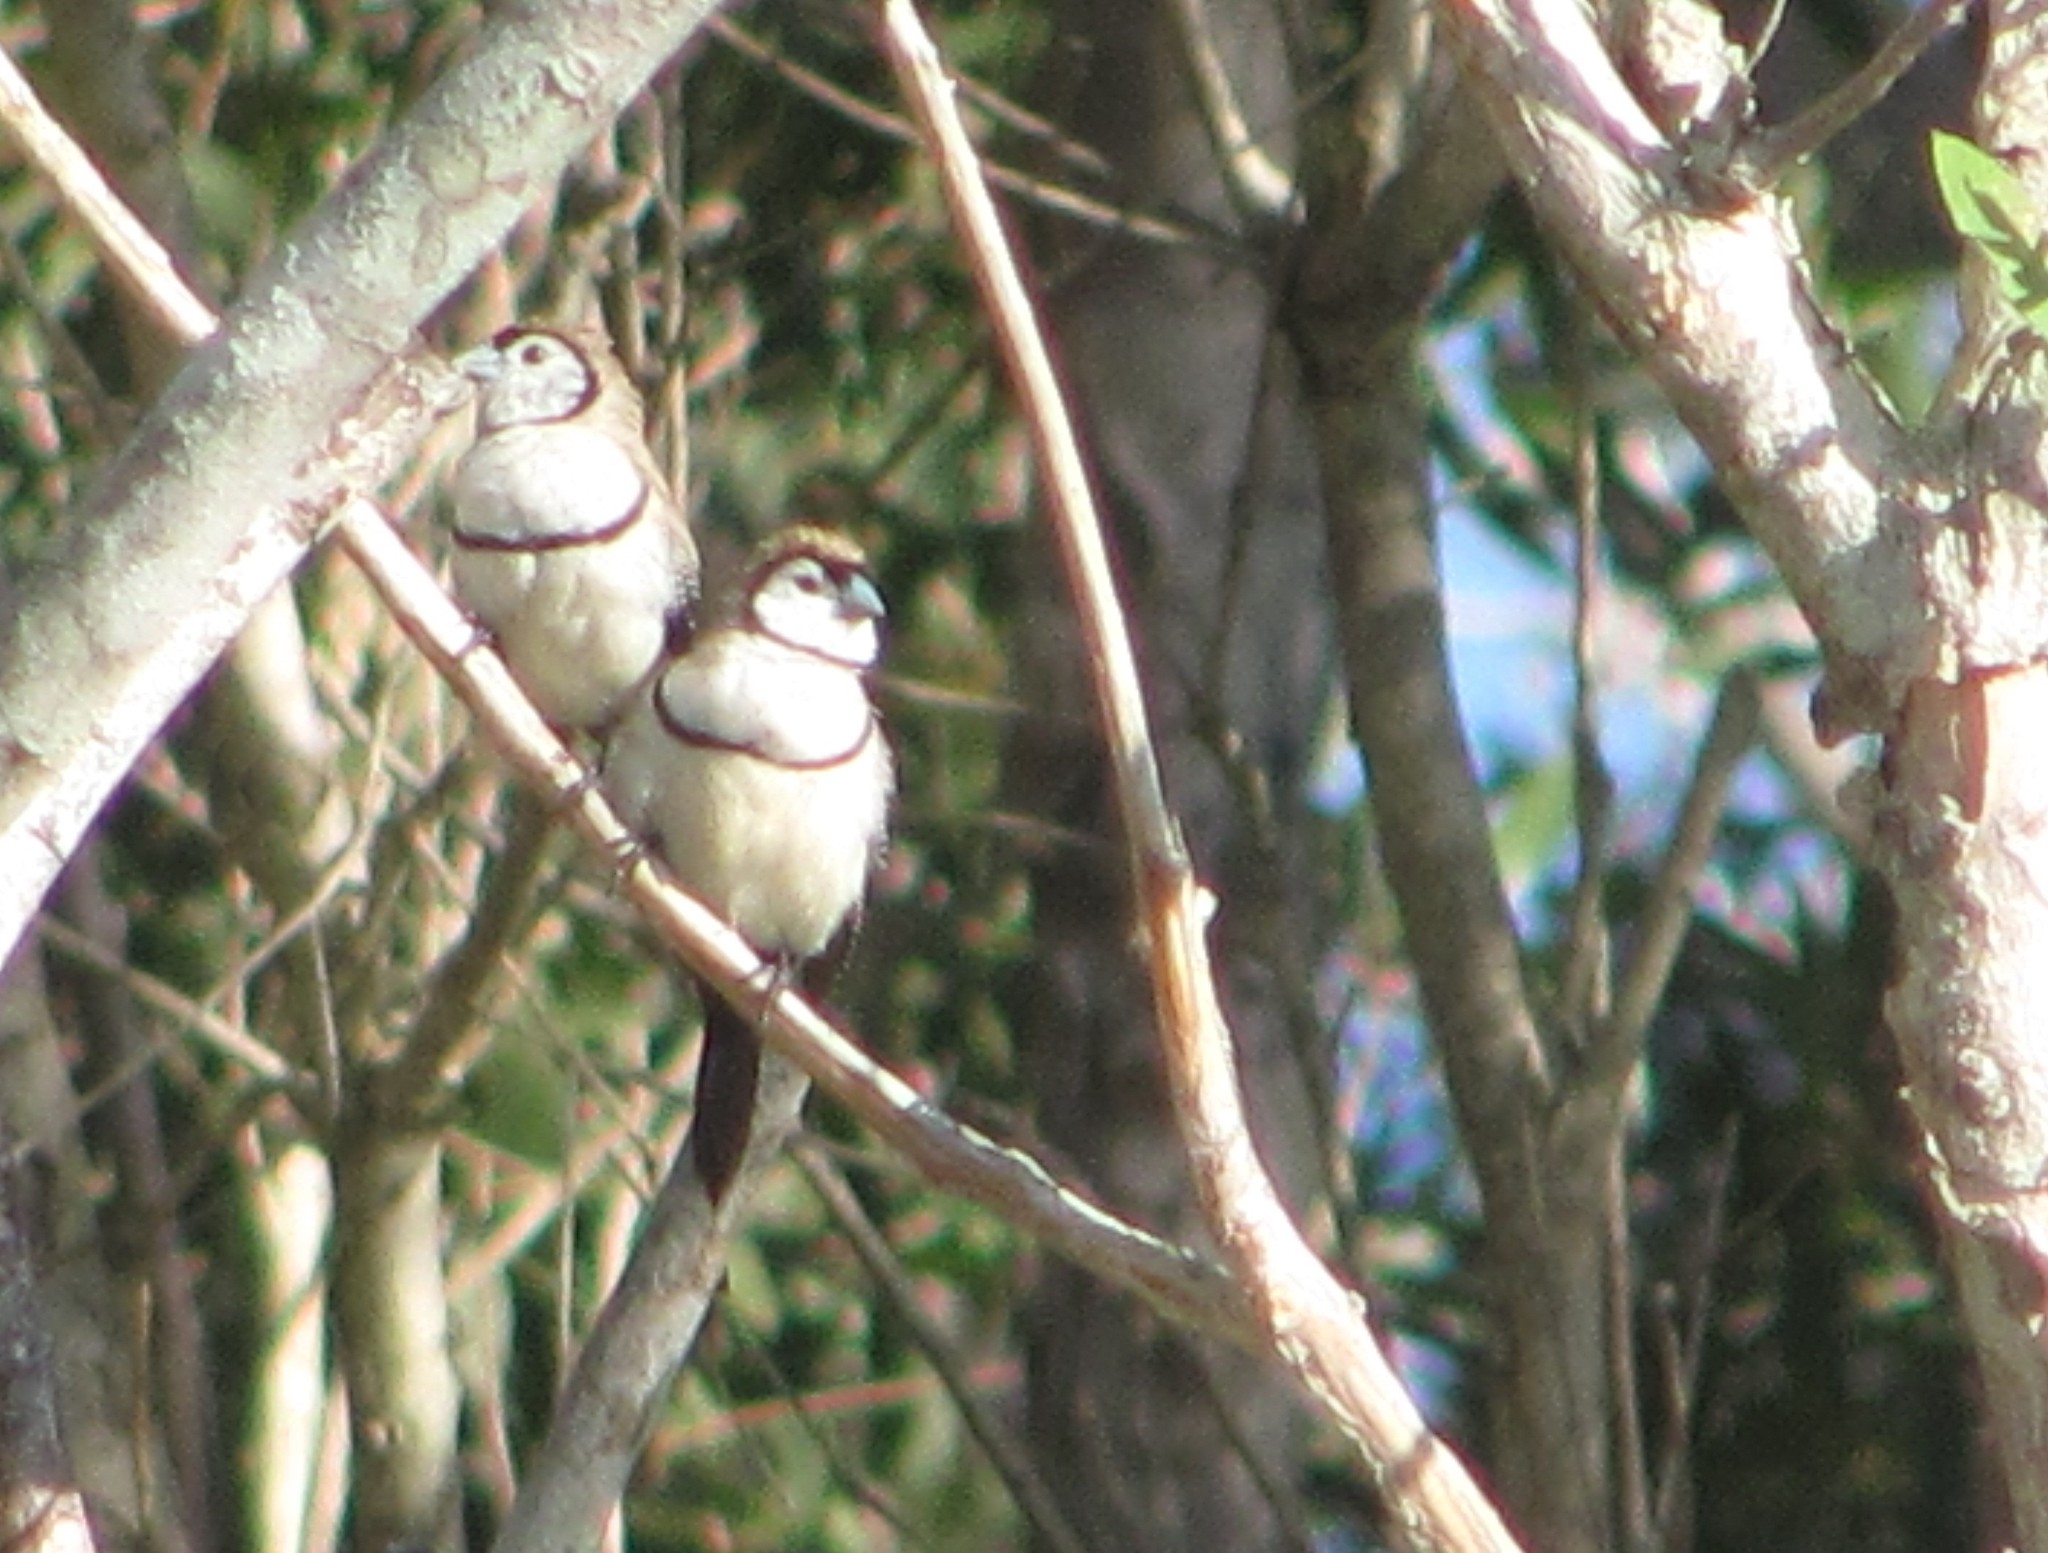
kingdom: Animalia
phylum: Chordata
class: Aves
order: Passeriformes
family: Estrildidae
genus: Taeniopygia
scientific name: Taeniopygia bichenovii
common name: Double-barred finch
